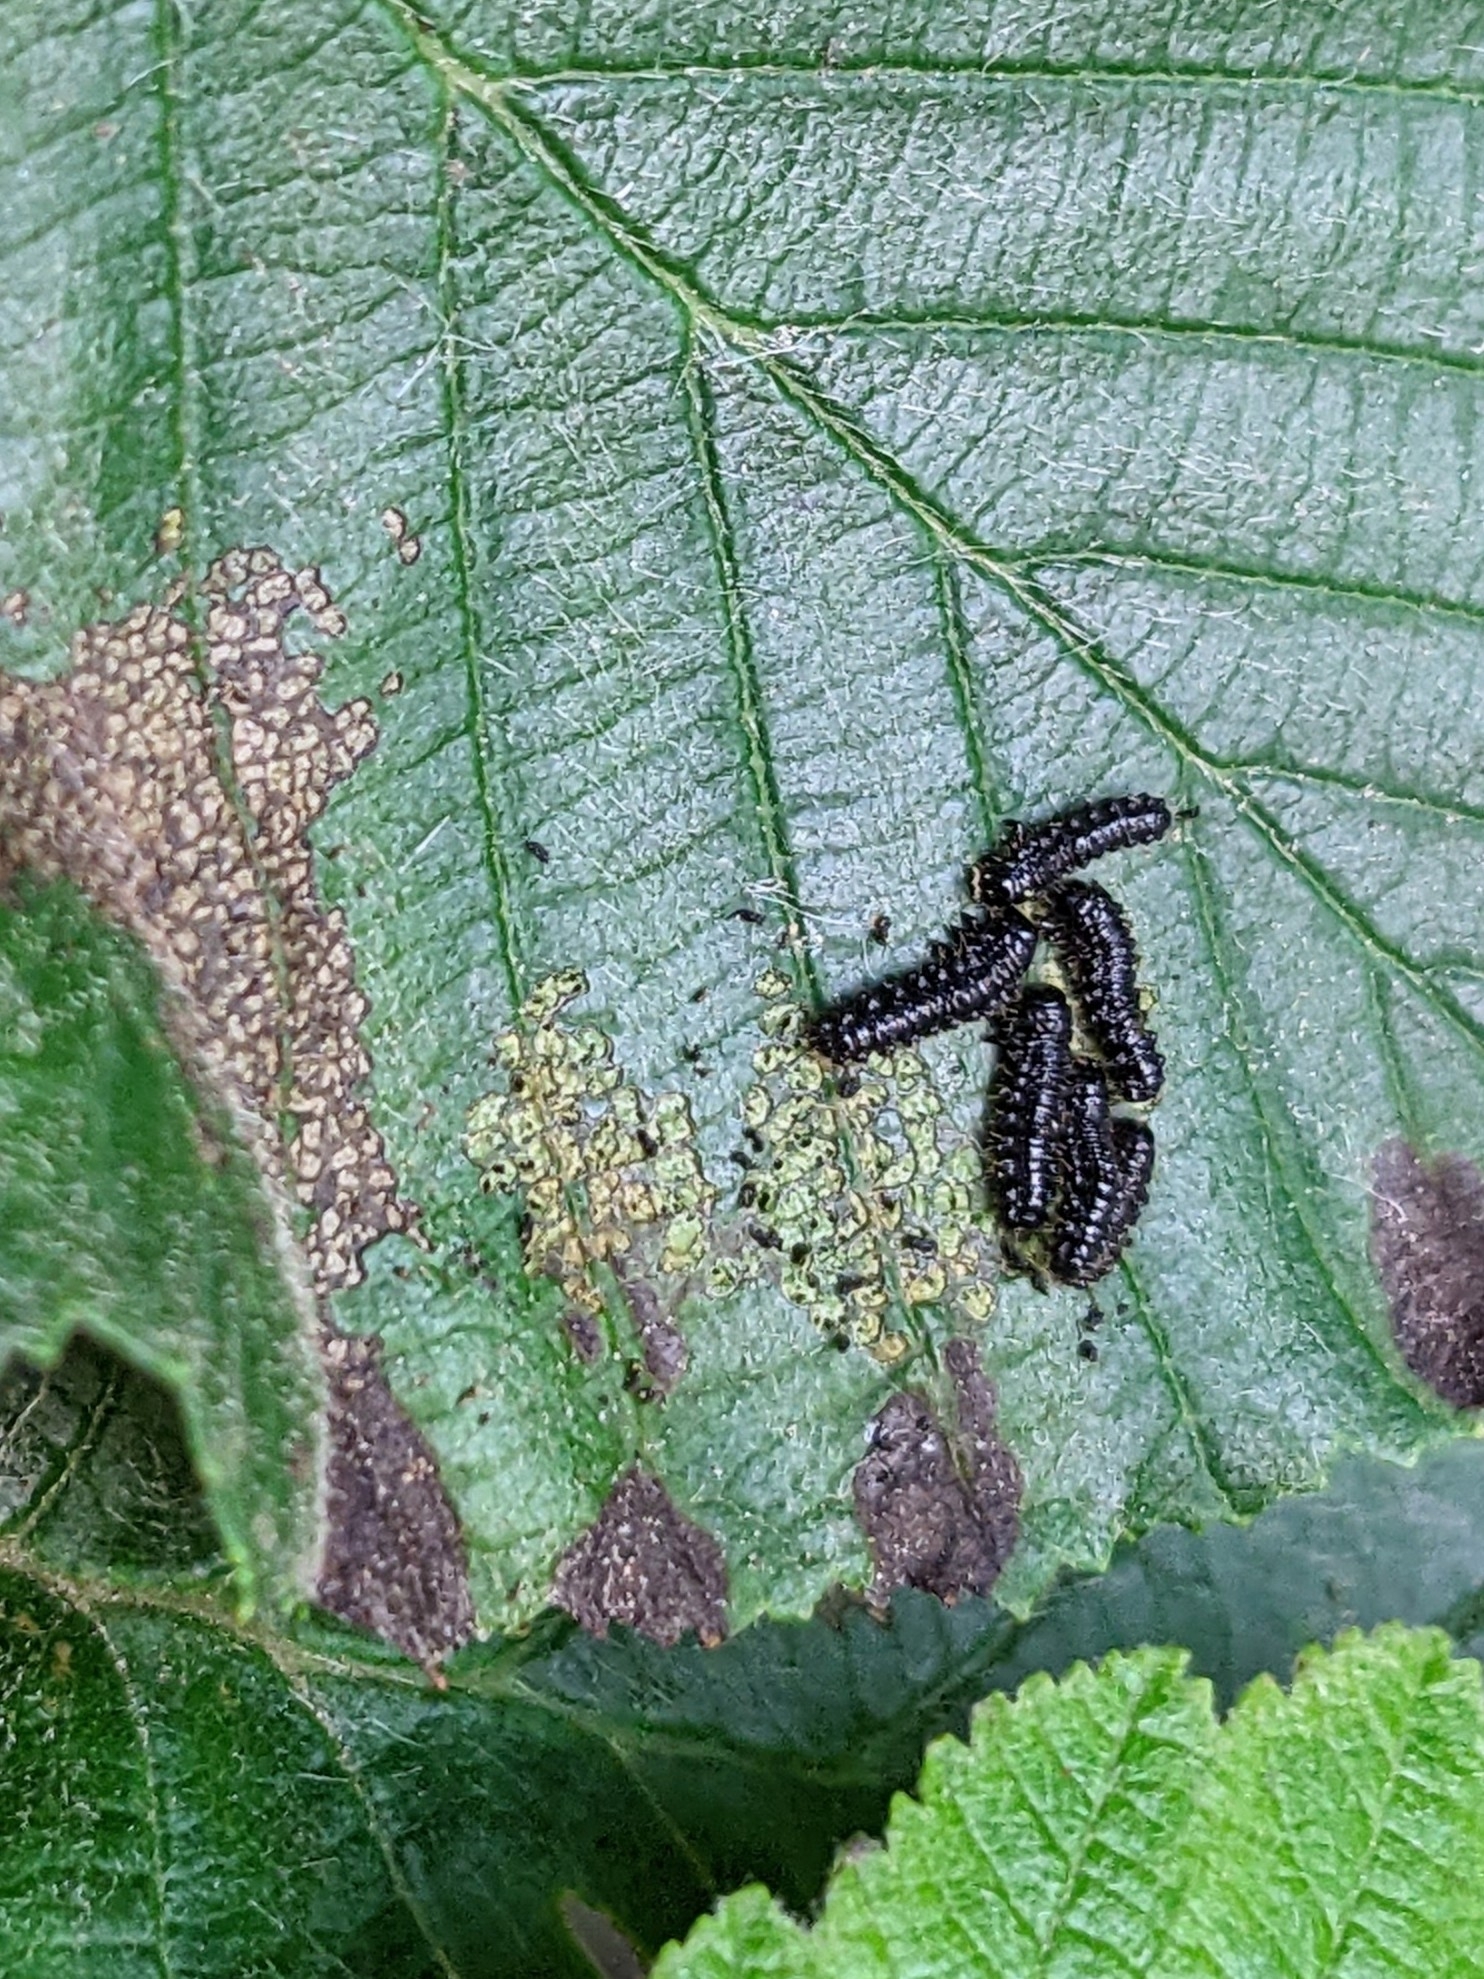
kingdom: Animalia
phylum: Arthropoda
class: Insecta
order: Coleoptera
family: Chrysomelidae
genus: Agelastica
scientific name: Agelastica alni
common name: Alder leaf beetle
